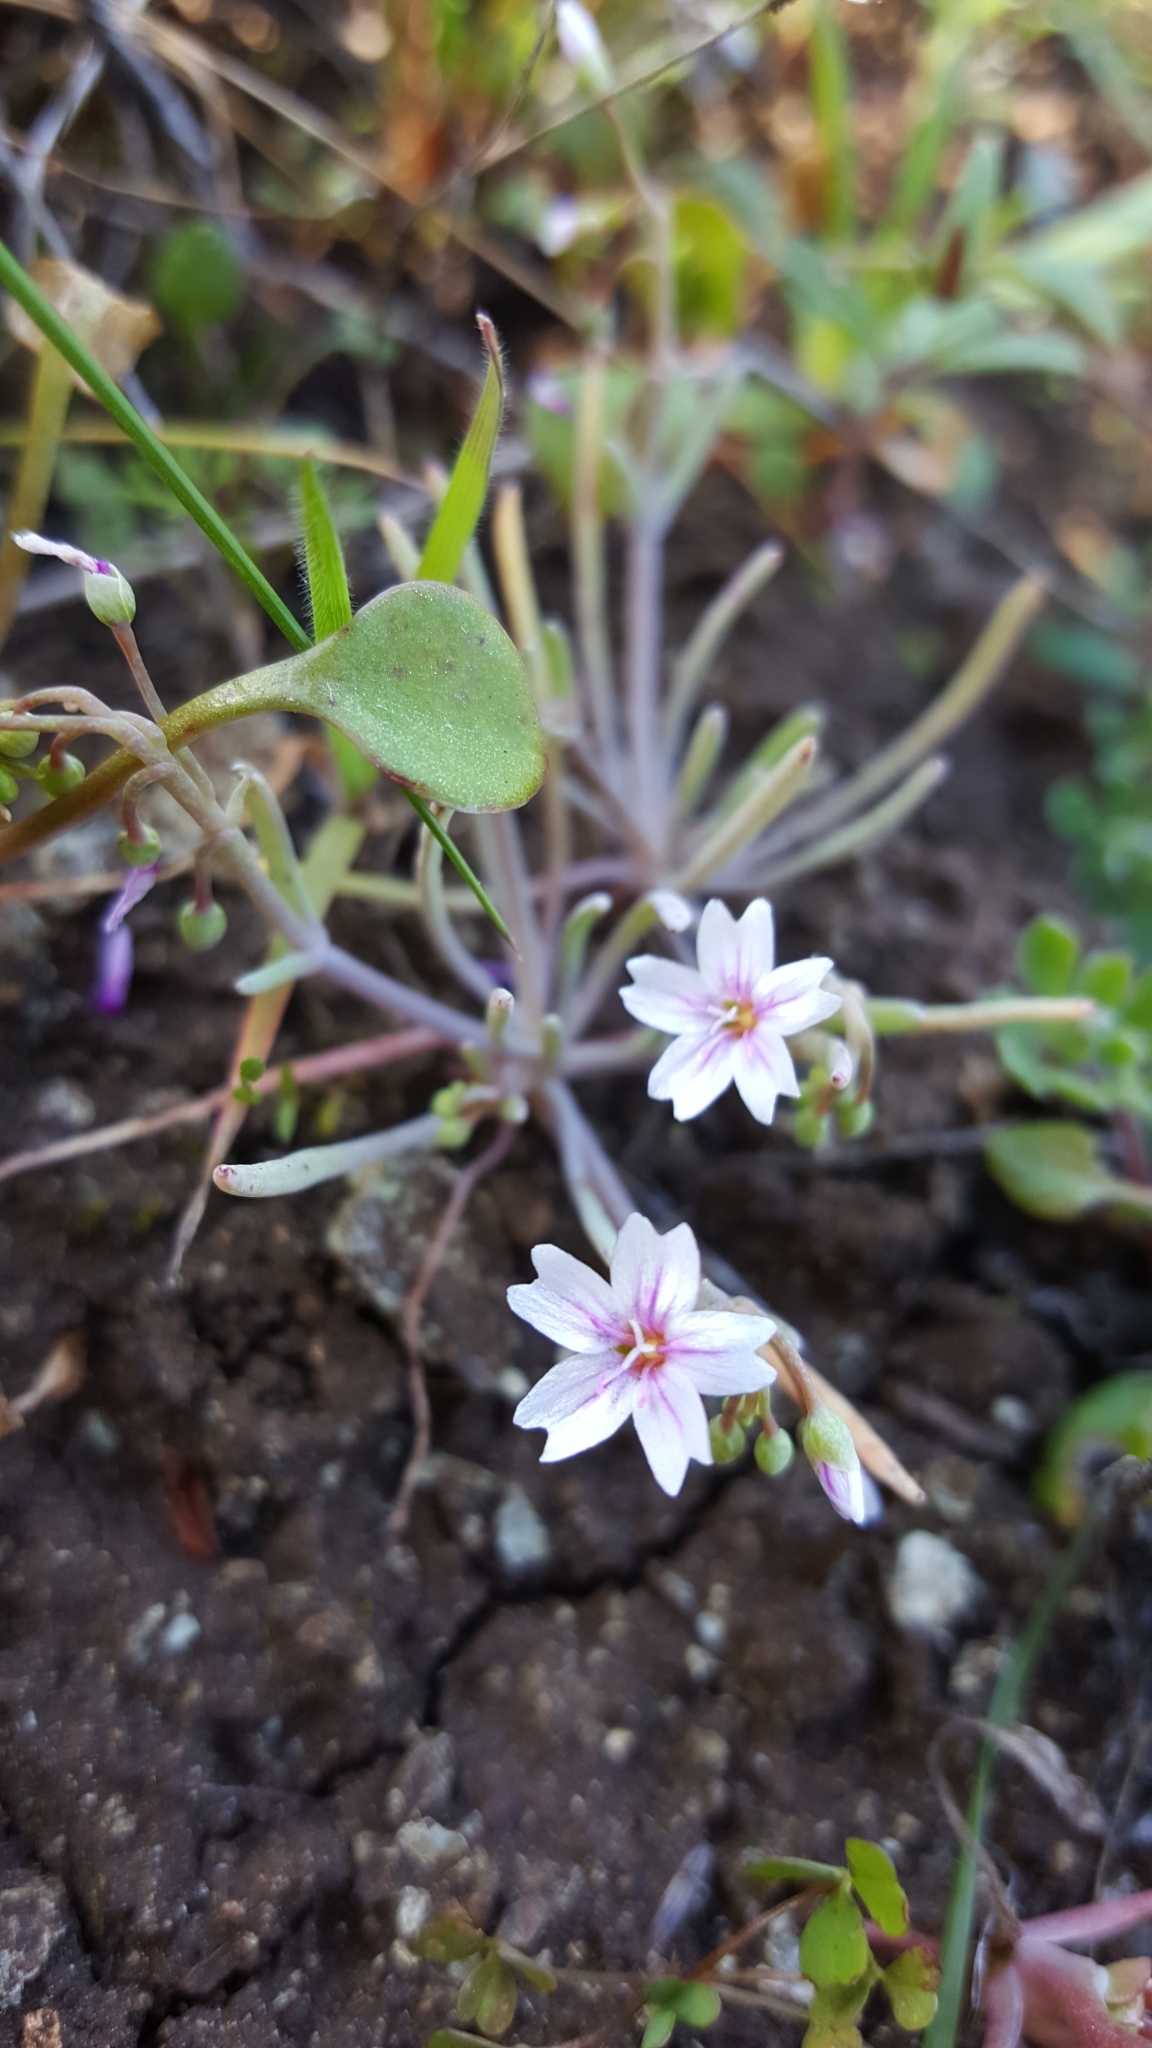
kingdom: Plantae
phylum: Tracheophyta
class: Magnoliopsida
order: Caryophyllales
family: Montiaceae
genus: Claytonia
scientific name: Claytonia exigua
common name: Pale spring beauty
